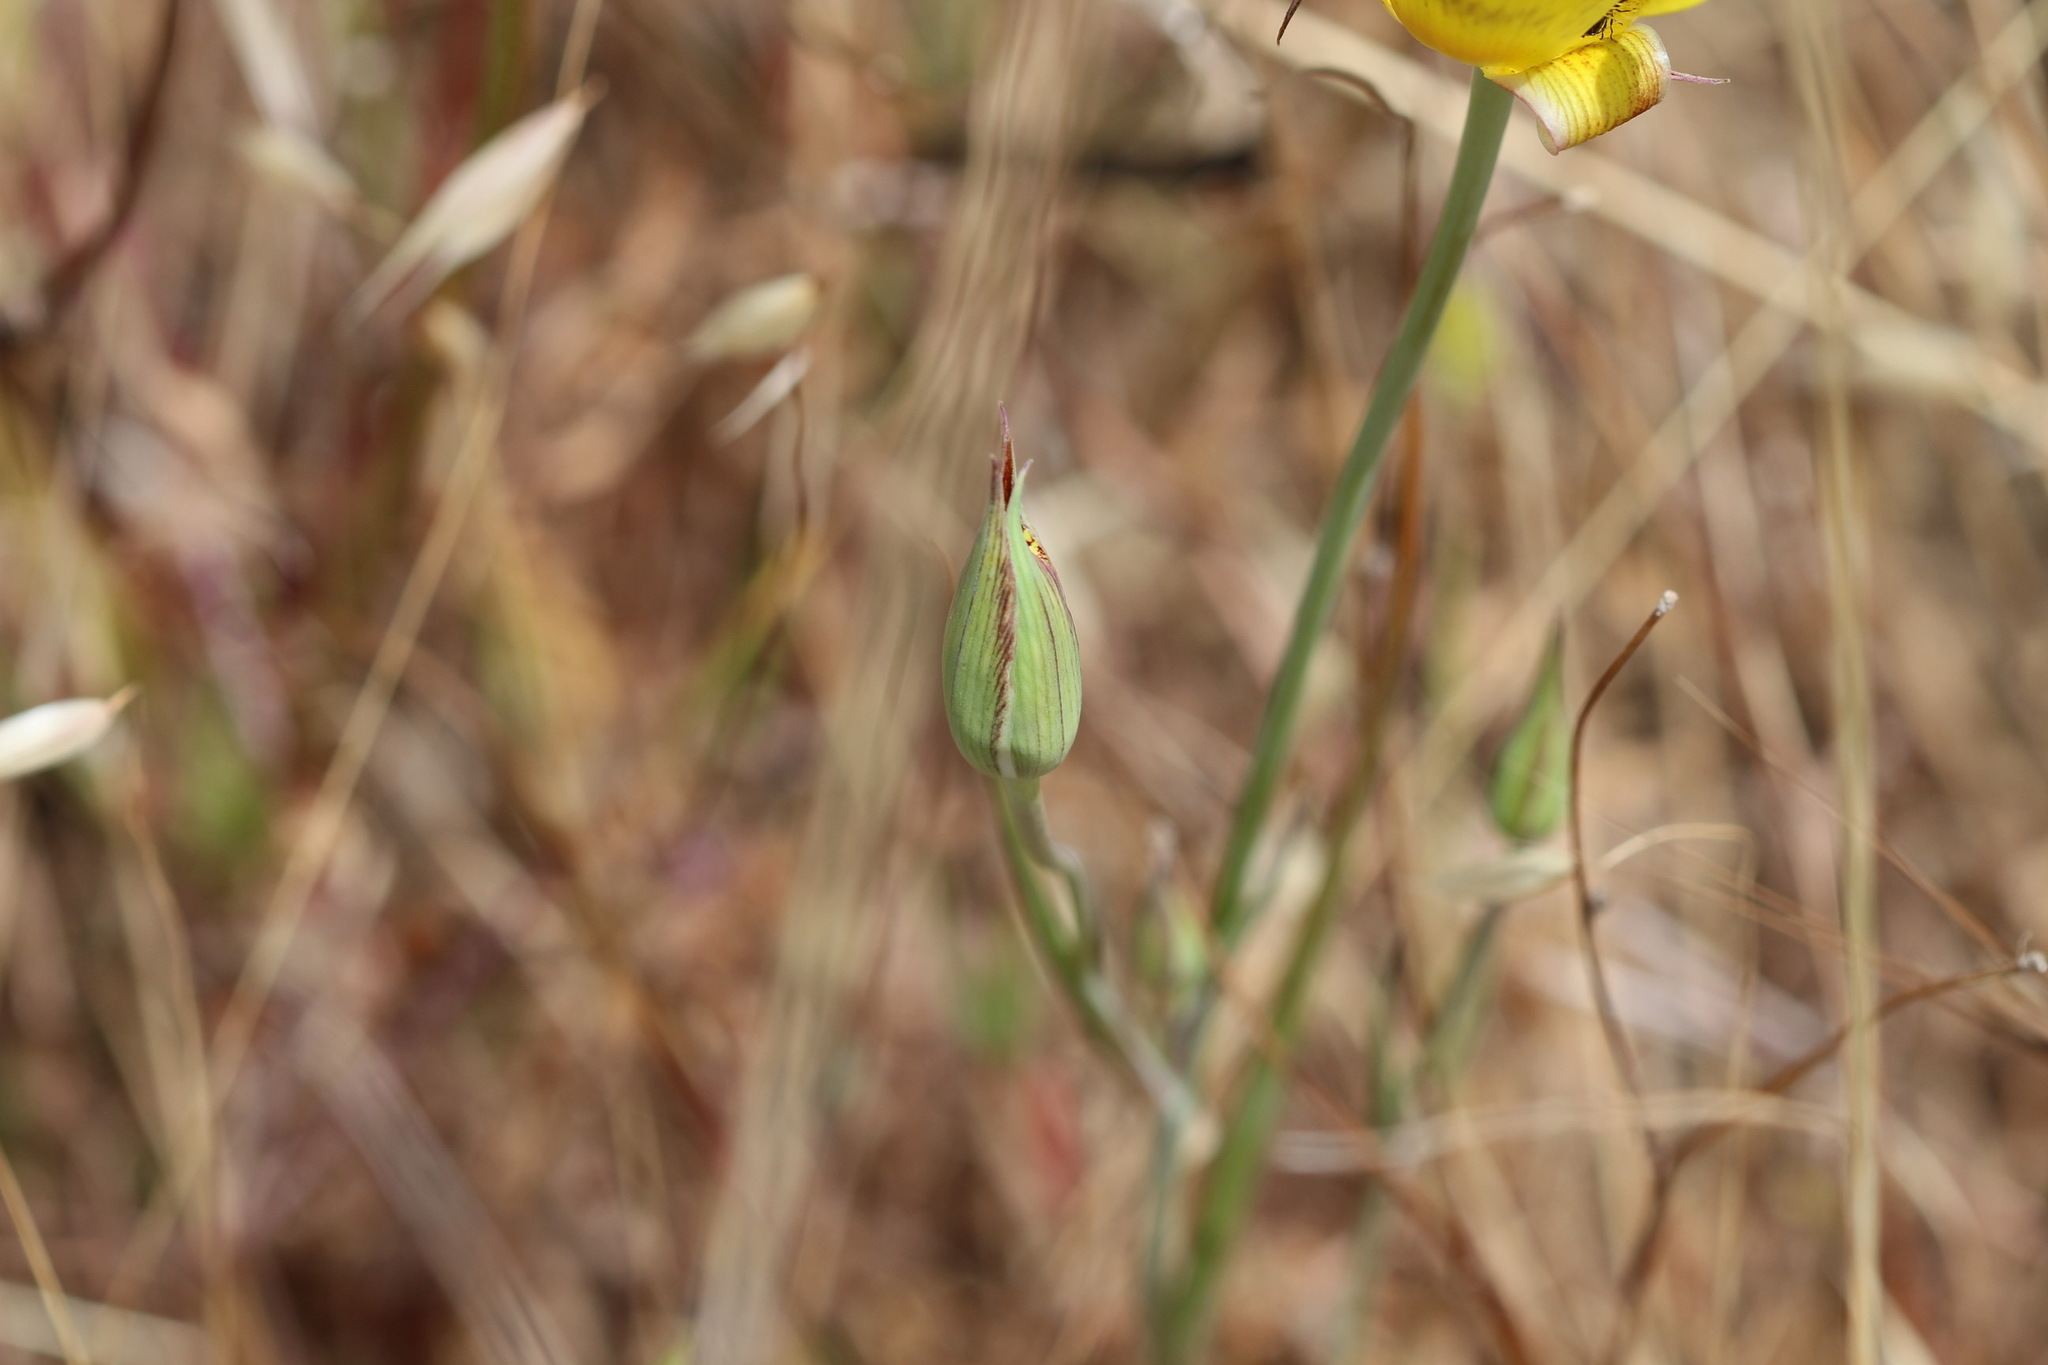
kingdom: Plantae
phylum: Tracheophyta
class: Liliopsida
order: Liliales
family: Liliaceae
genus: Calochortus
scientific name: Calochortus luteus
